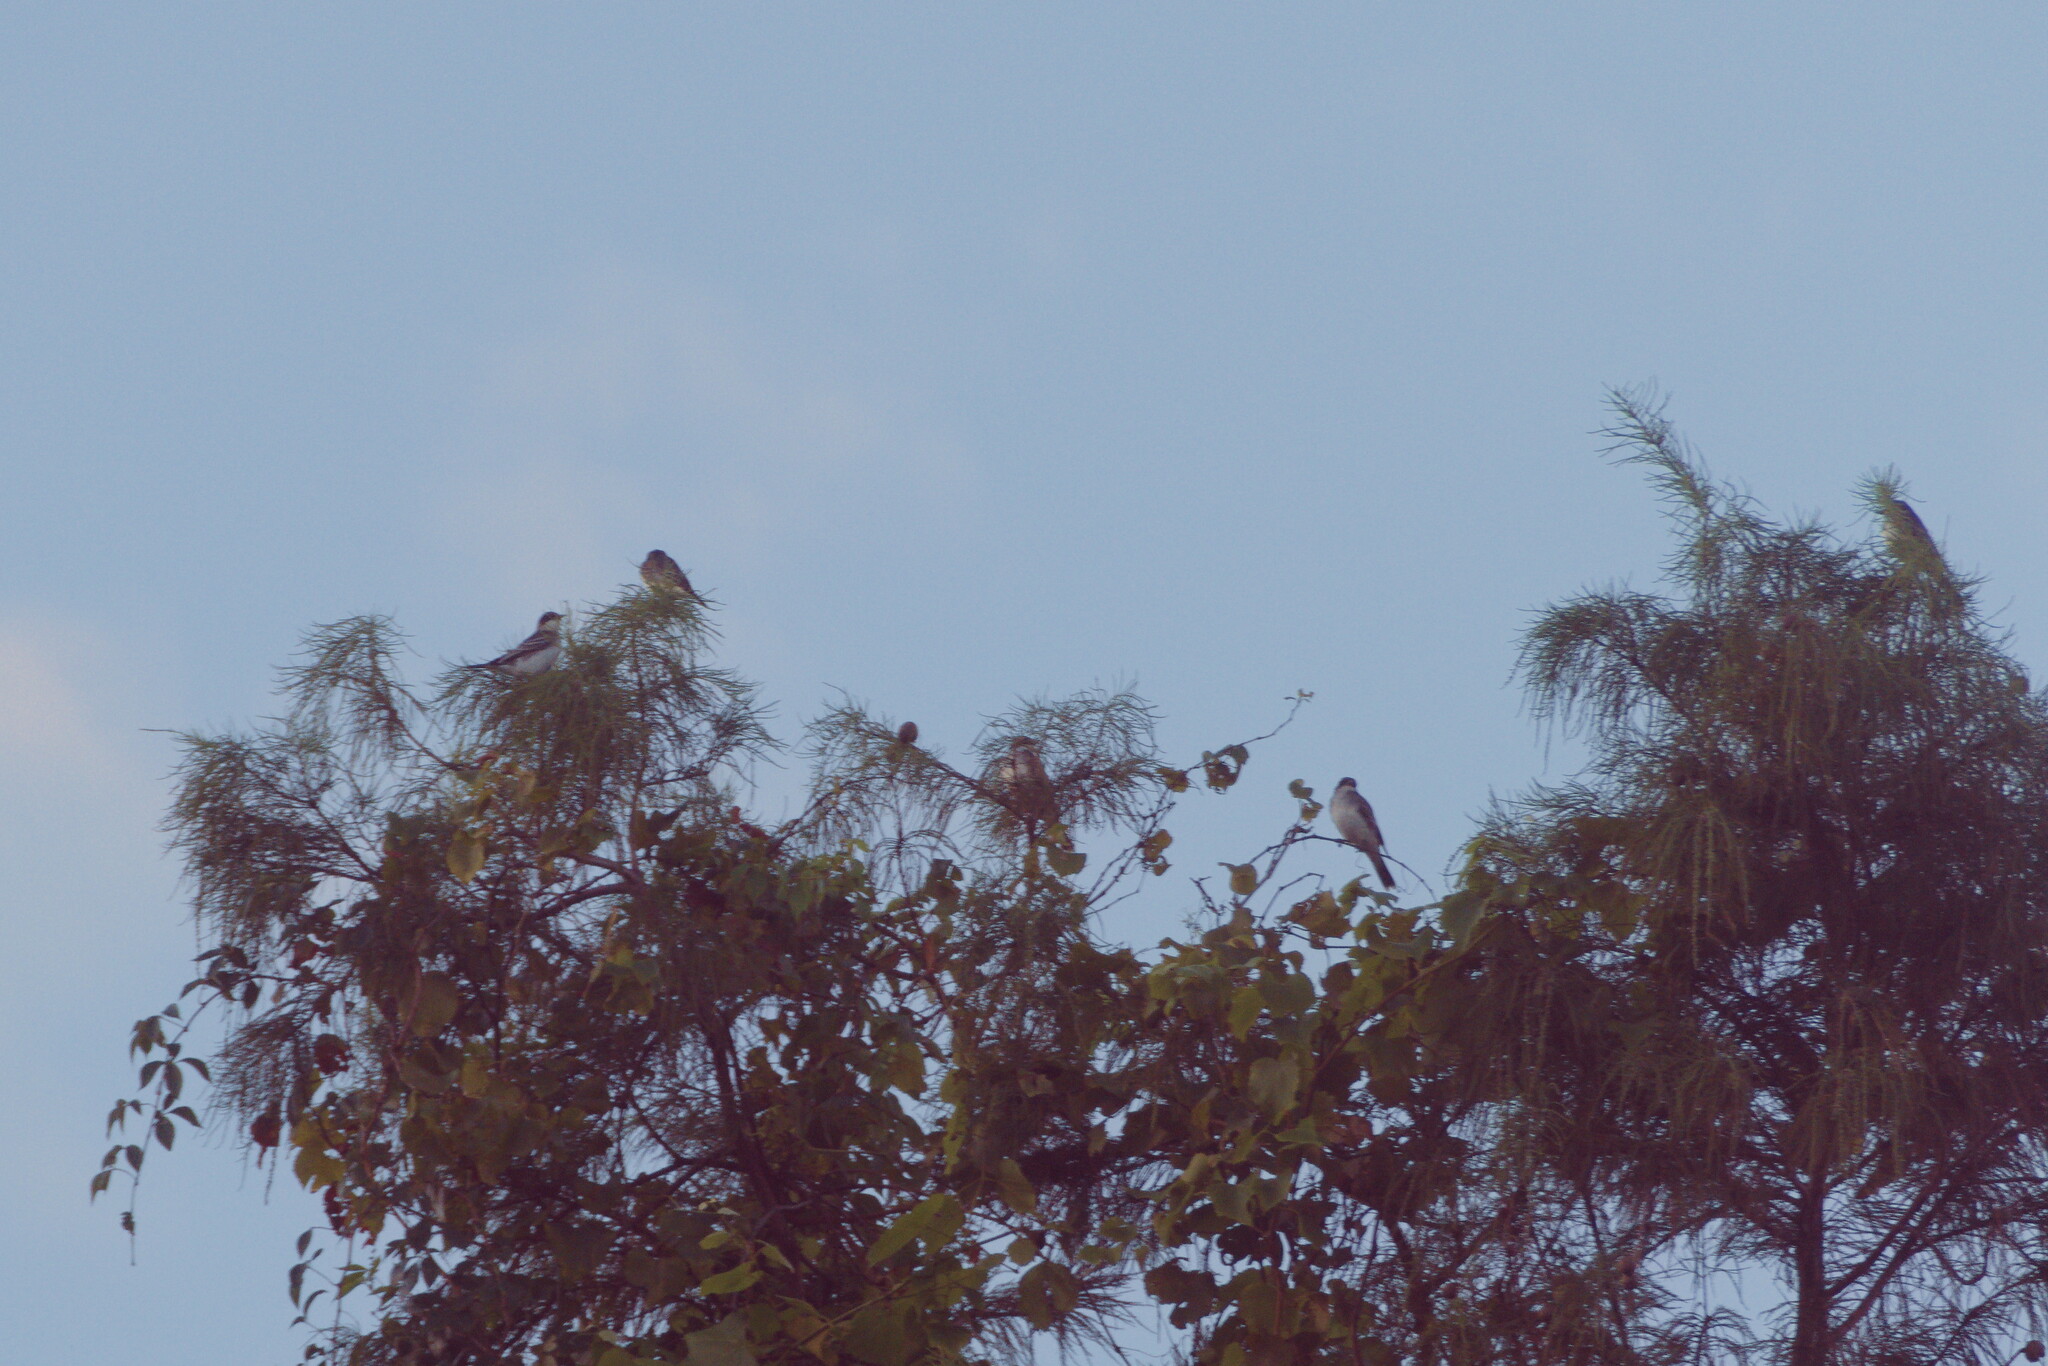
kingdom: Animalia
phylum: Chordata
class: Aves
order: Passeriformes
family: Tyrannidae
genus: Tyrannus
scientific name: Tyrannus tyrannus
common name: Eastern kingbird
